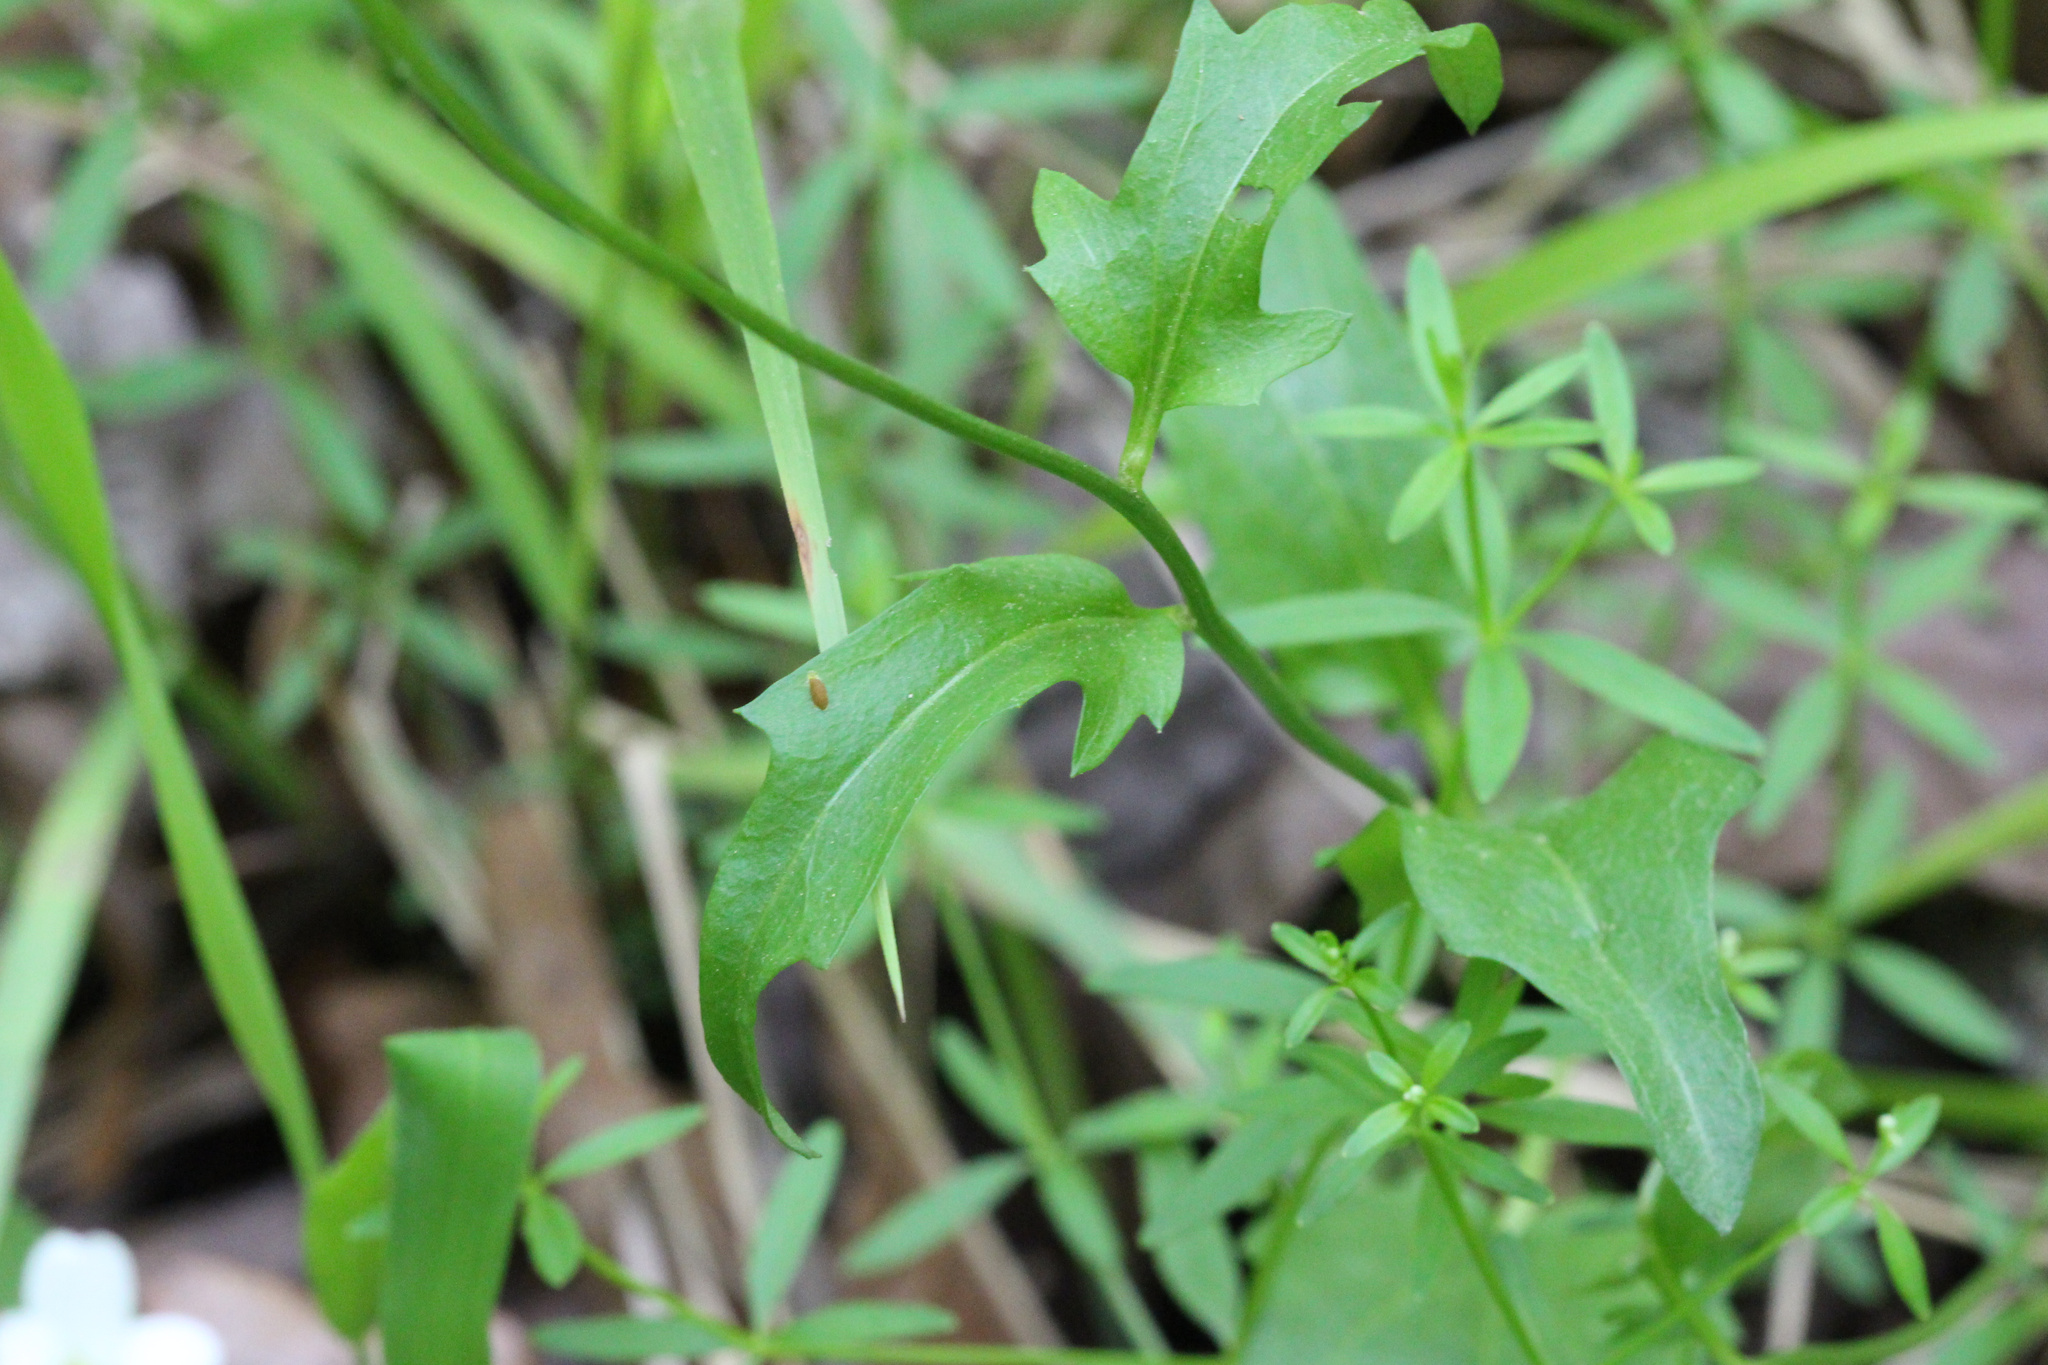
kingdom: Plantae
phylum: Tracheophyta
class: Magnoliopsida
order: Brassicales
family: Brassicaceae
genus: Cardamine
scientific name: Cardamine bulbosa
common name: Spring cress
